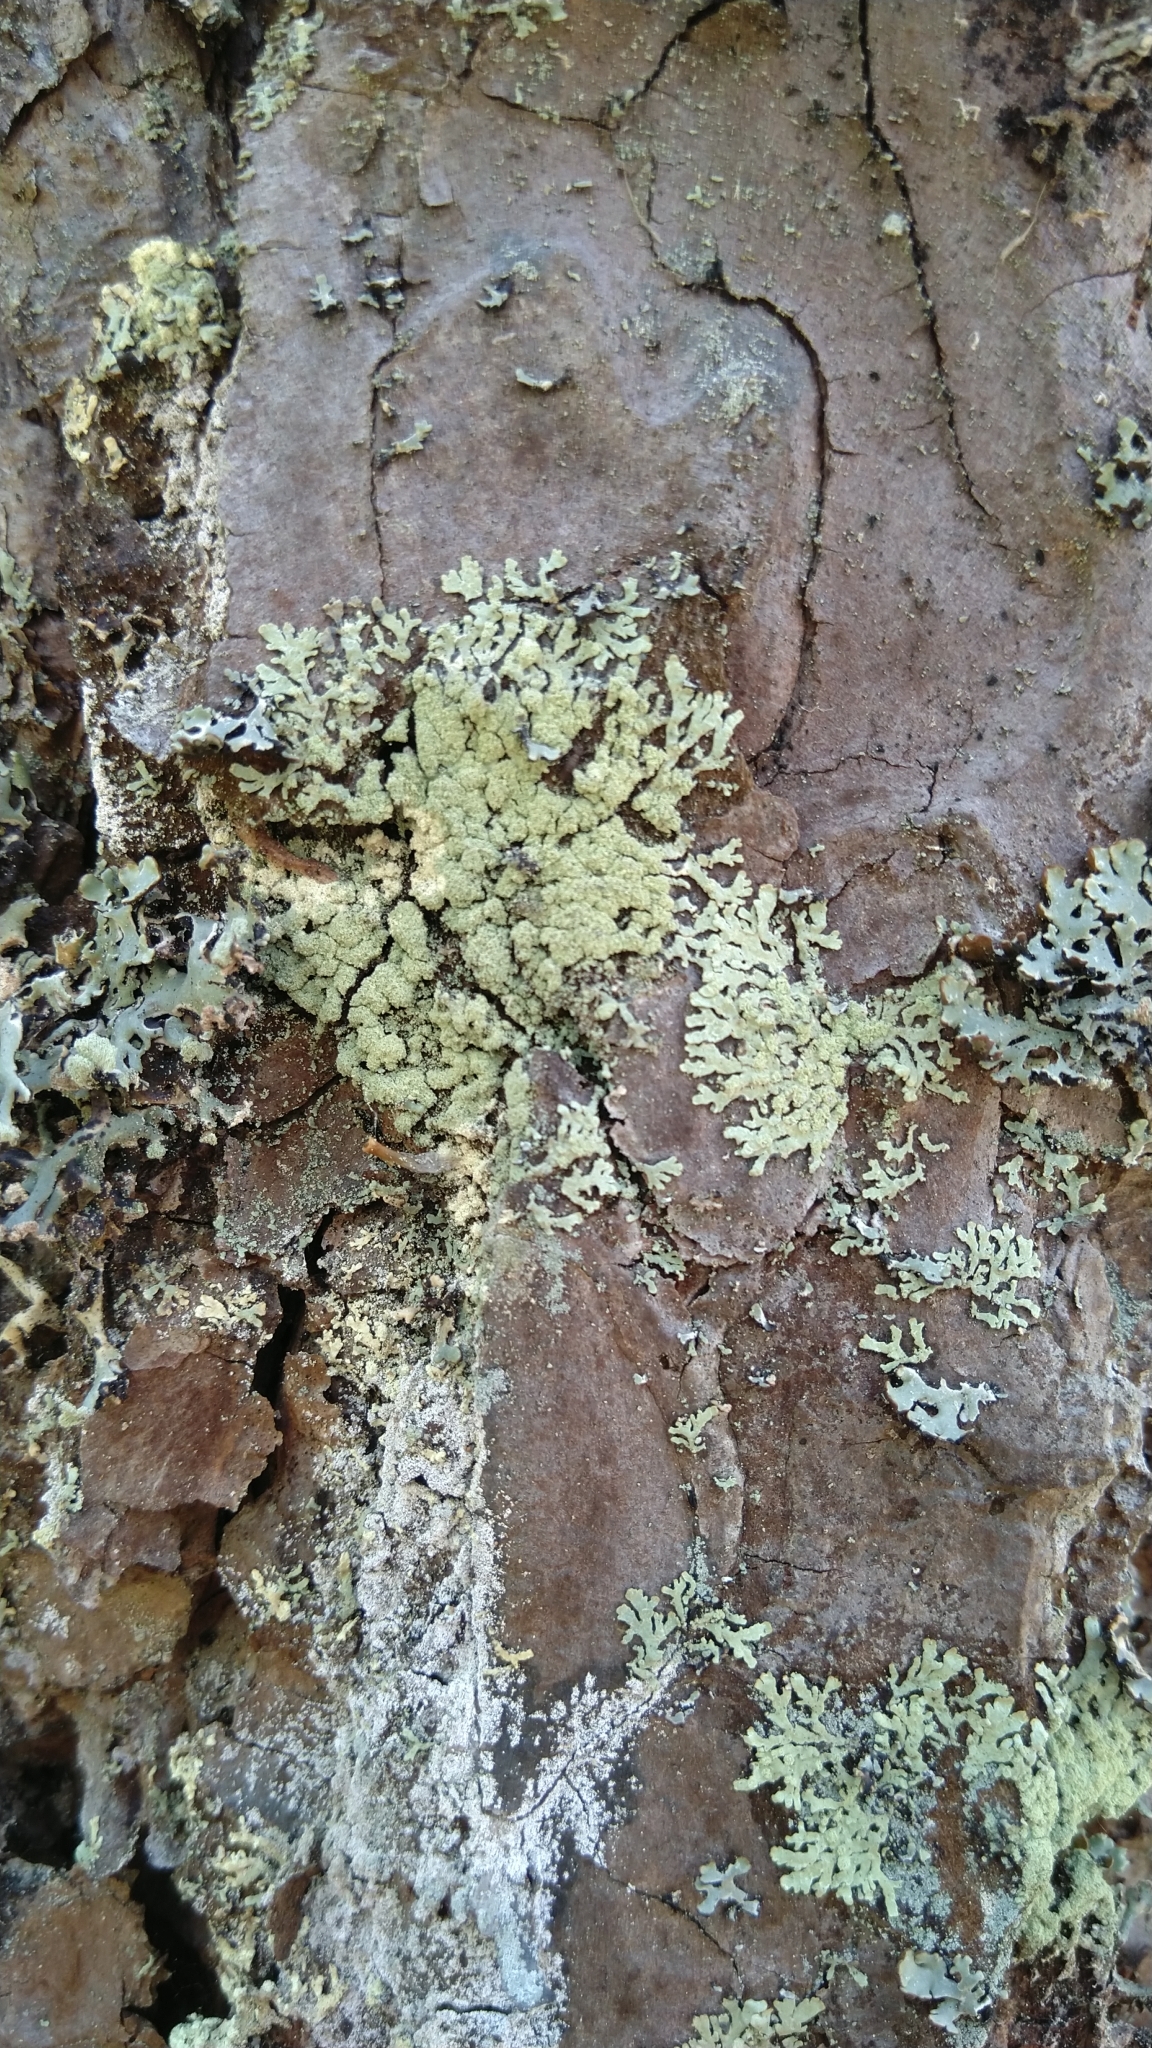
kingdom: Fungi
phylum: Ascomycota
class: Lecanoromycetes
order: Lecanorales
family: Parmeliaceae
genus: Parmeliopsis
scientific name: Parmeliopsis ambigua
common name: Green starburst lichen
